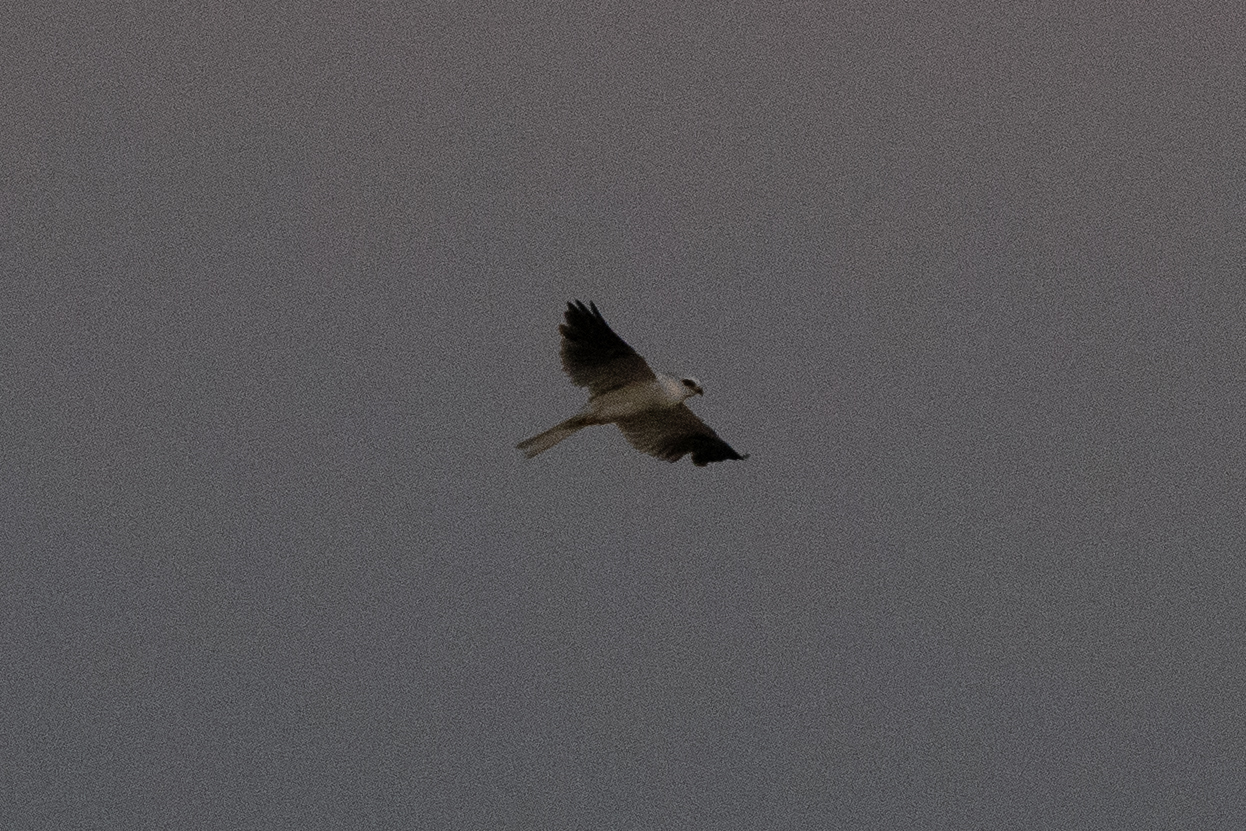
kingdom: Animalia
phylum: Chordata
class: Aves
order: Accipitriformes
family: Accipitridae
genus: Elanus
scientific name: Elanus leucurus
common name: White-tailed kite
